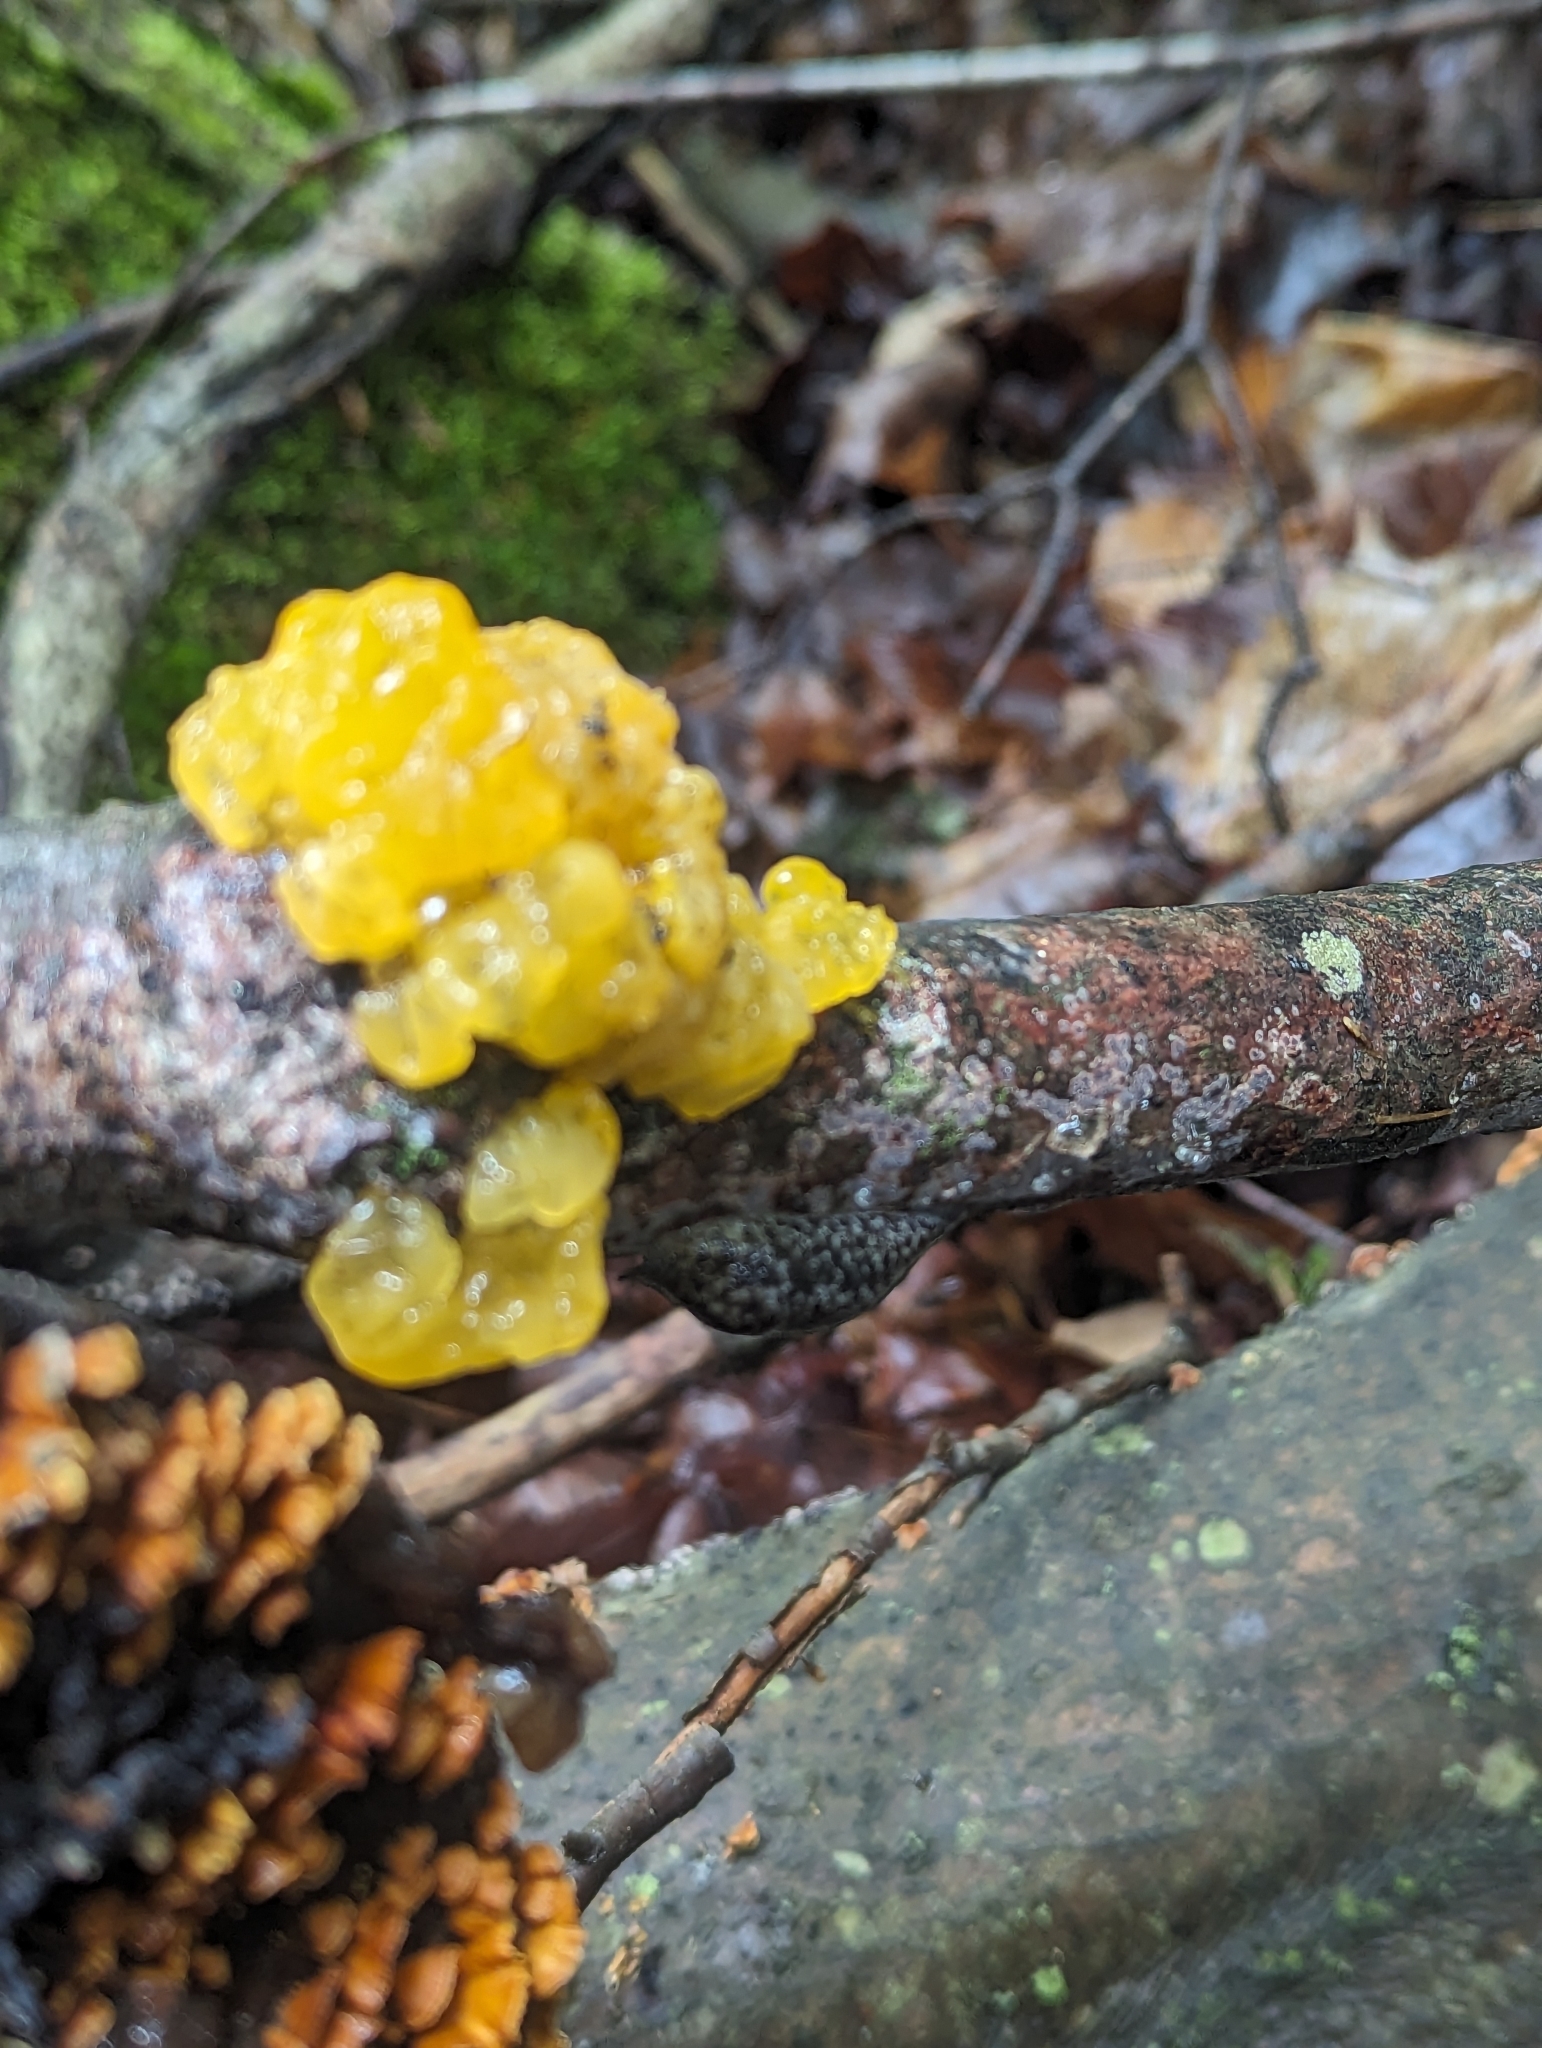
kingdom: Fungi
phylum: Basidiomycota
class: Tremellomycetes
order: Tremellales
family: Tremellaceae
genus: Tremella
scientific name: Tremella mesenterica
